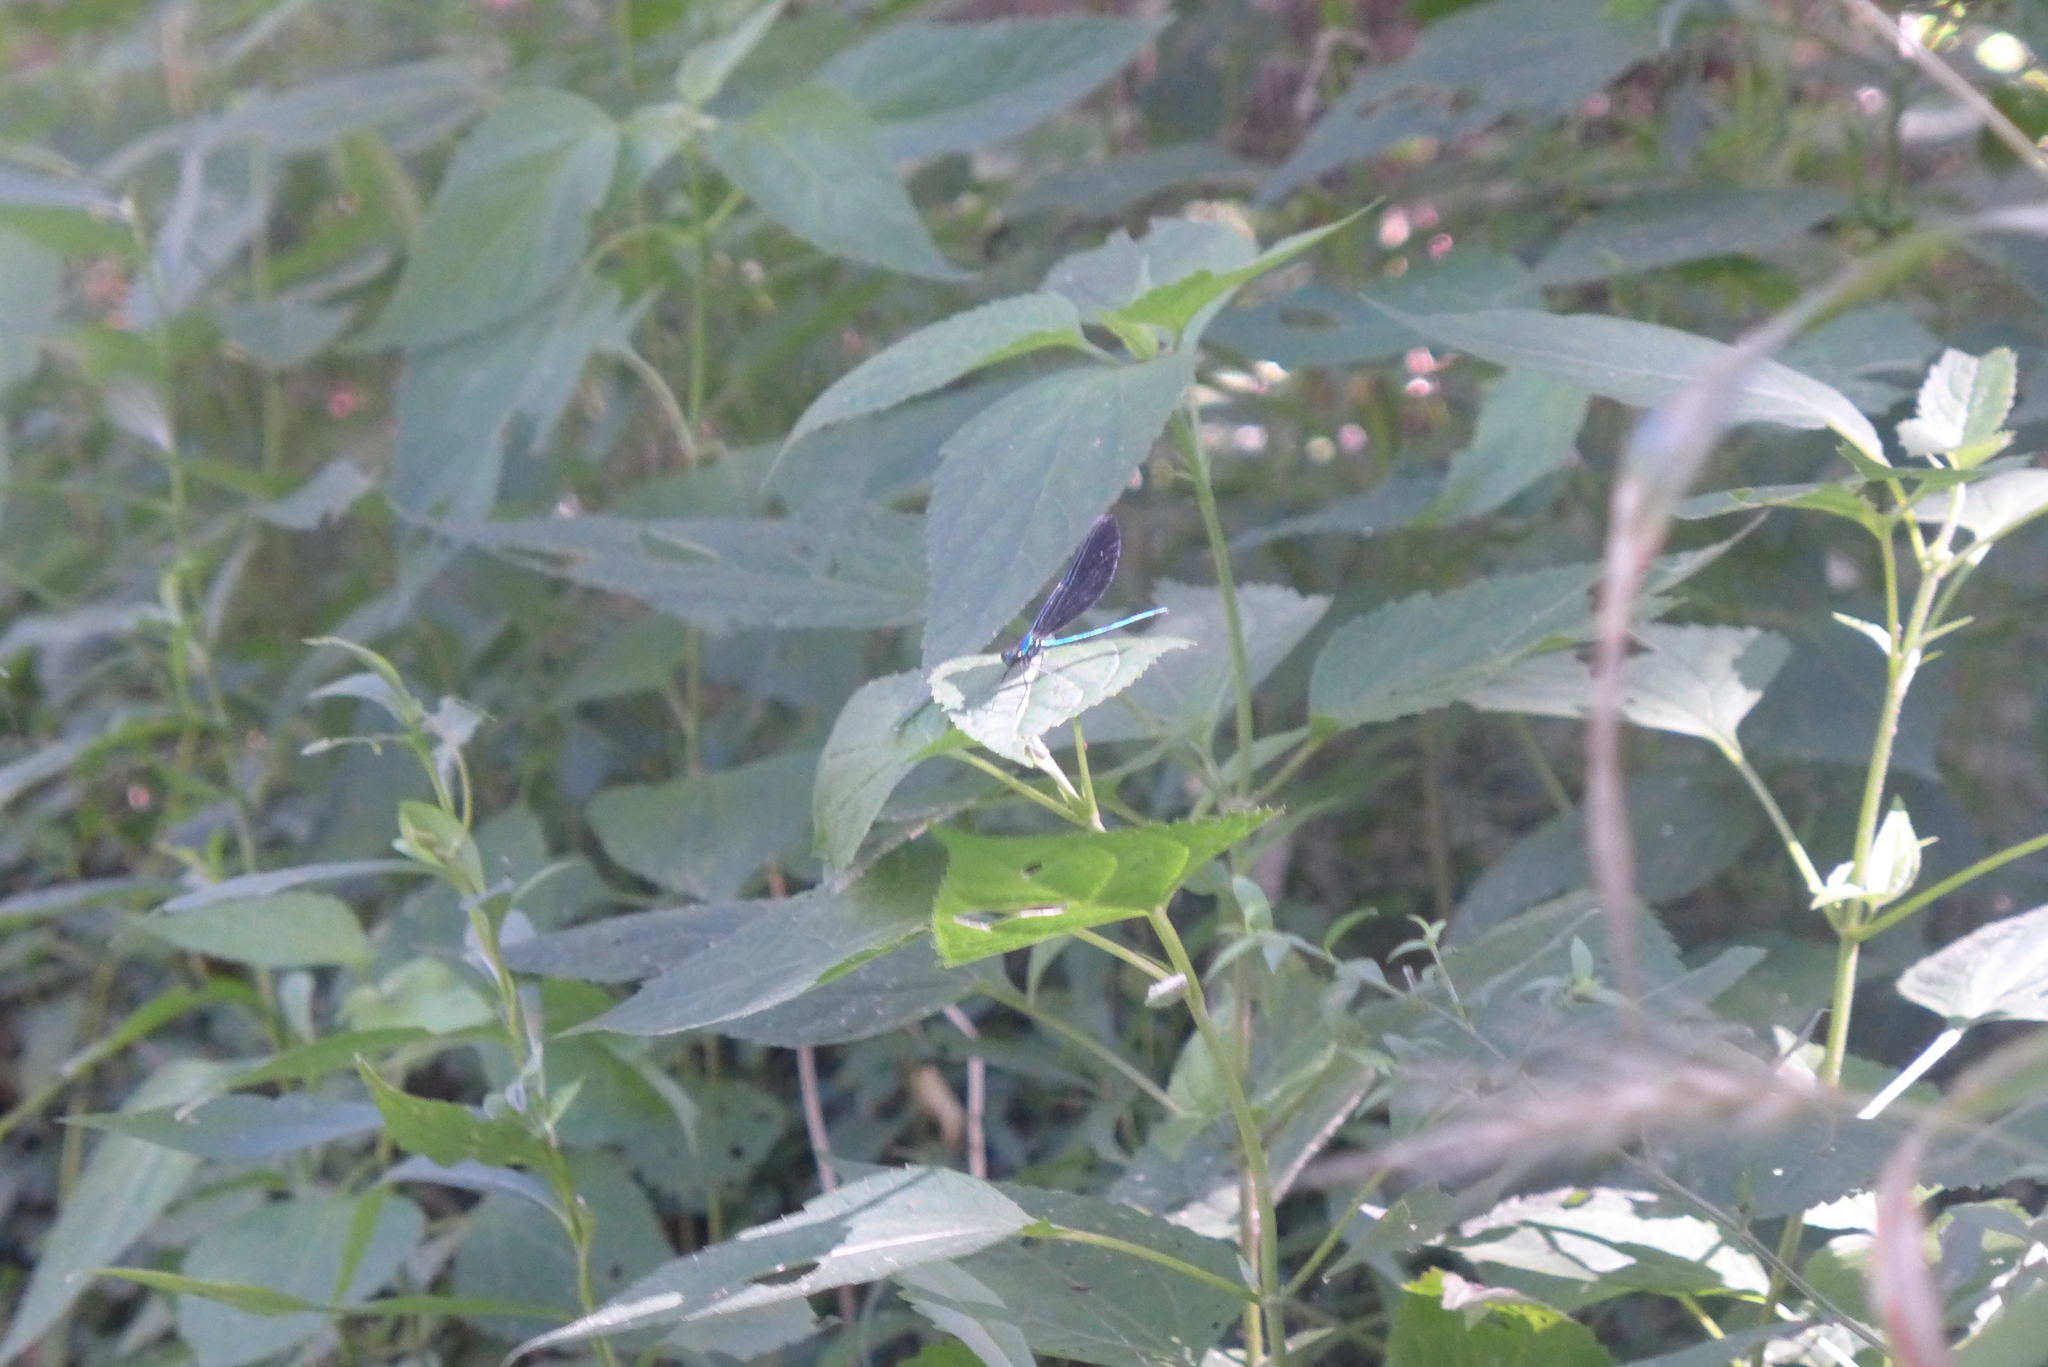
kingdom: Animalia
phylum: Arthropoda
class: Insecta
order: Odonata
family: Calopterygidae
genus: Calopteryx
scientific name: Calopteryx maculata
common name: Ebony jewelwing
